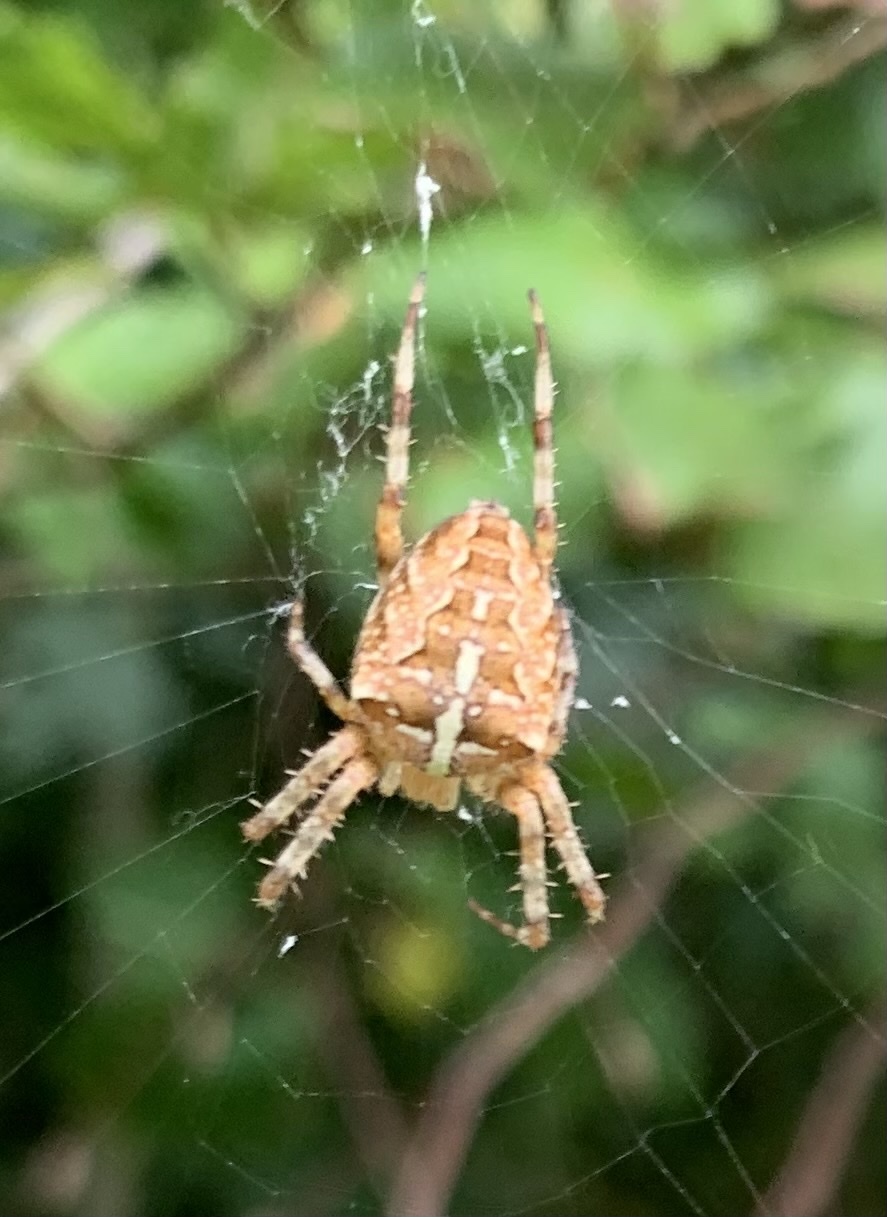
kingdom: Animalia
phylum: Arthropoda
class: Arachnida
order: Araneae
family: Araneidae
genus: Araneus
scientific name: Araneus diadematus
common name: Cross orbweaver
